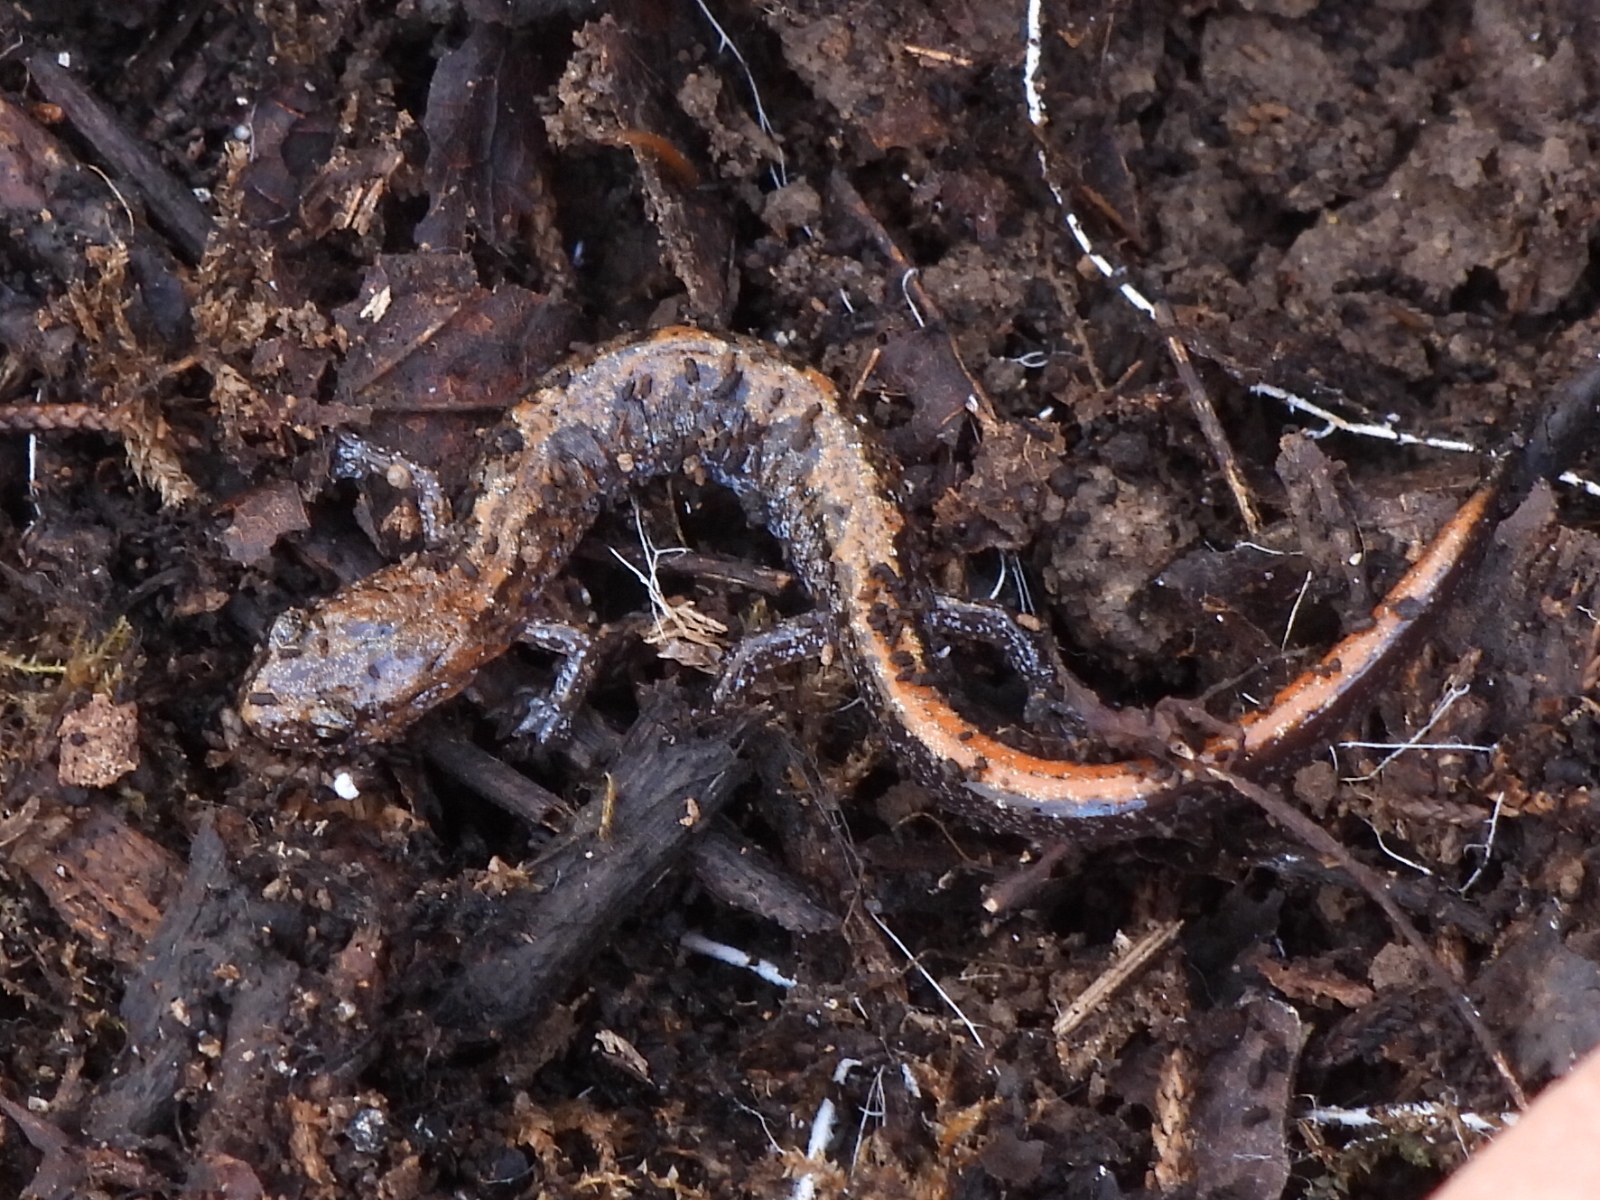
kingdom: Animalia
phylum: Chordata
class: Amphibia
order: Caudata
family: Plethodontidae
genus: Plethodon
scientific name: Plethodon dorsalis
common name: Northern zigzag salamander
